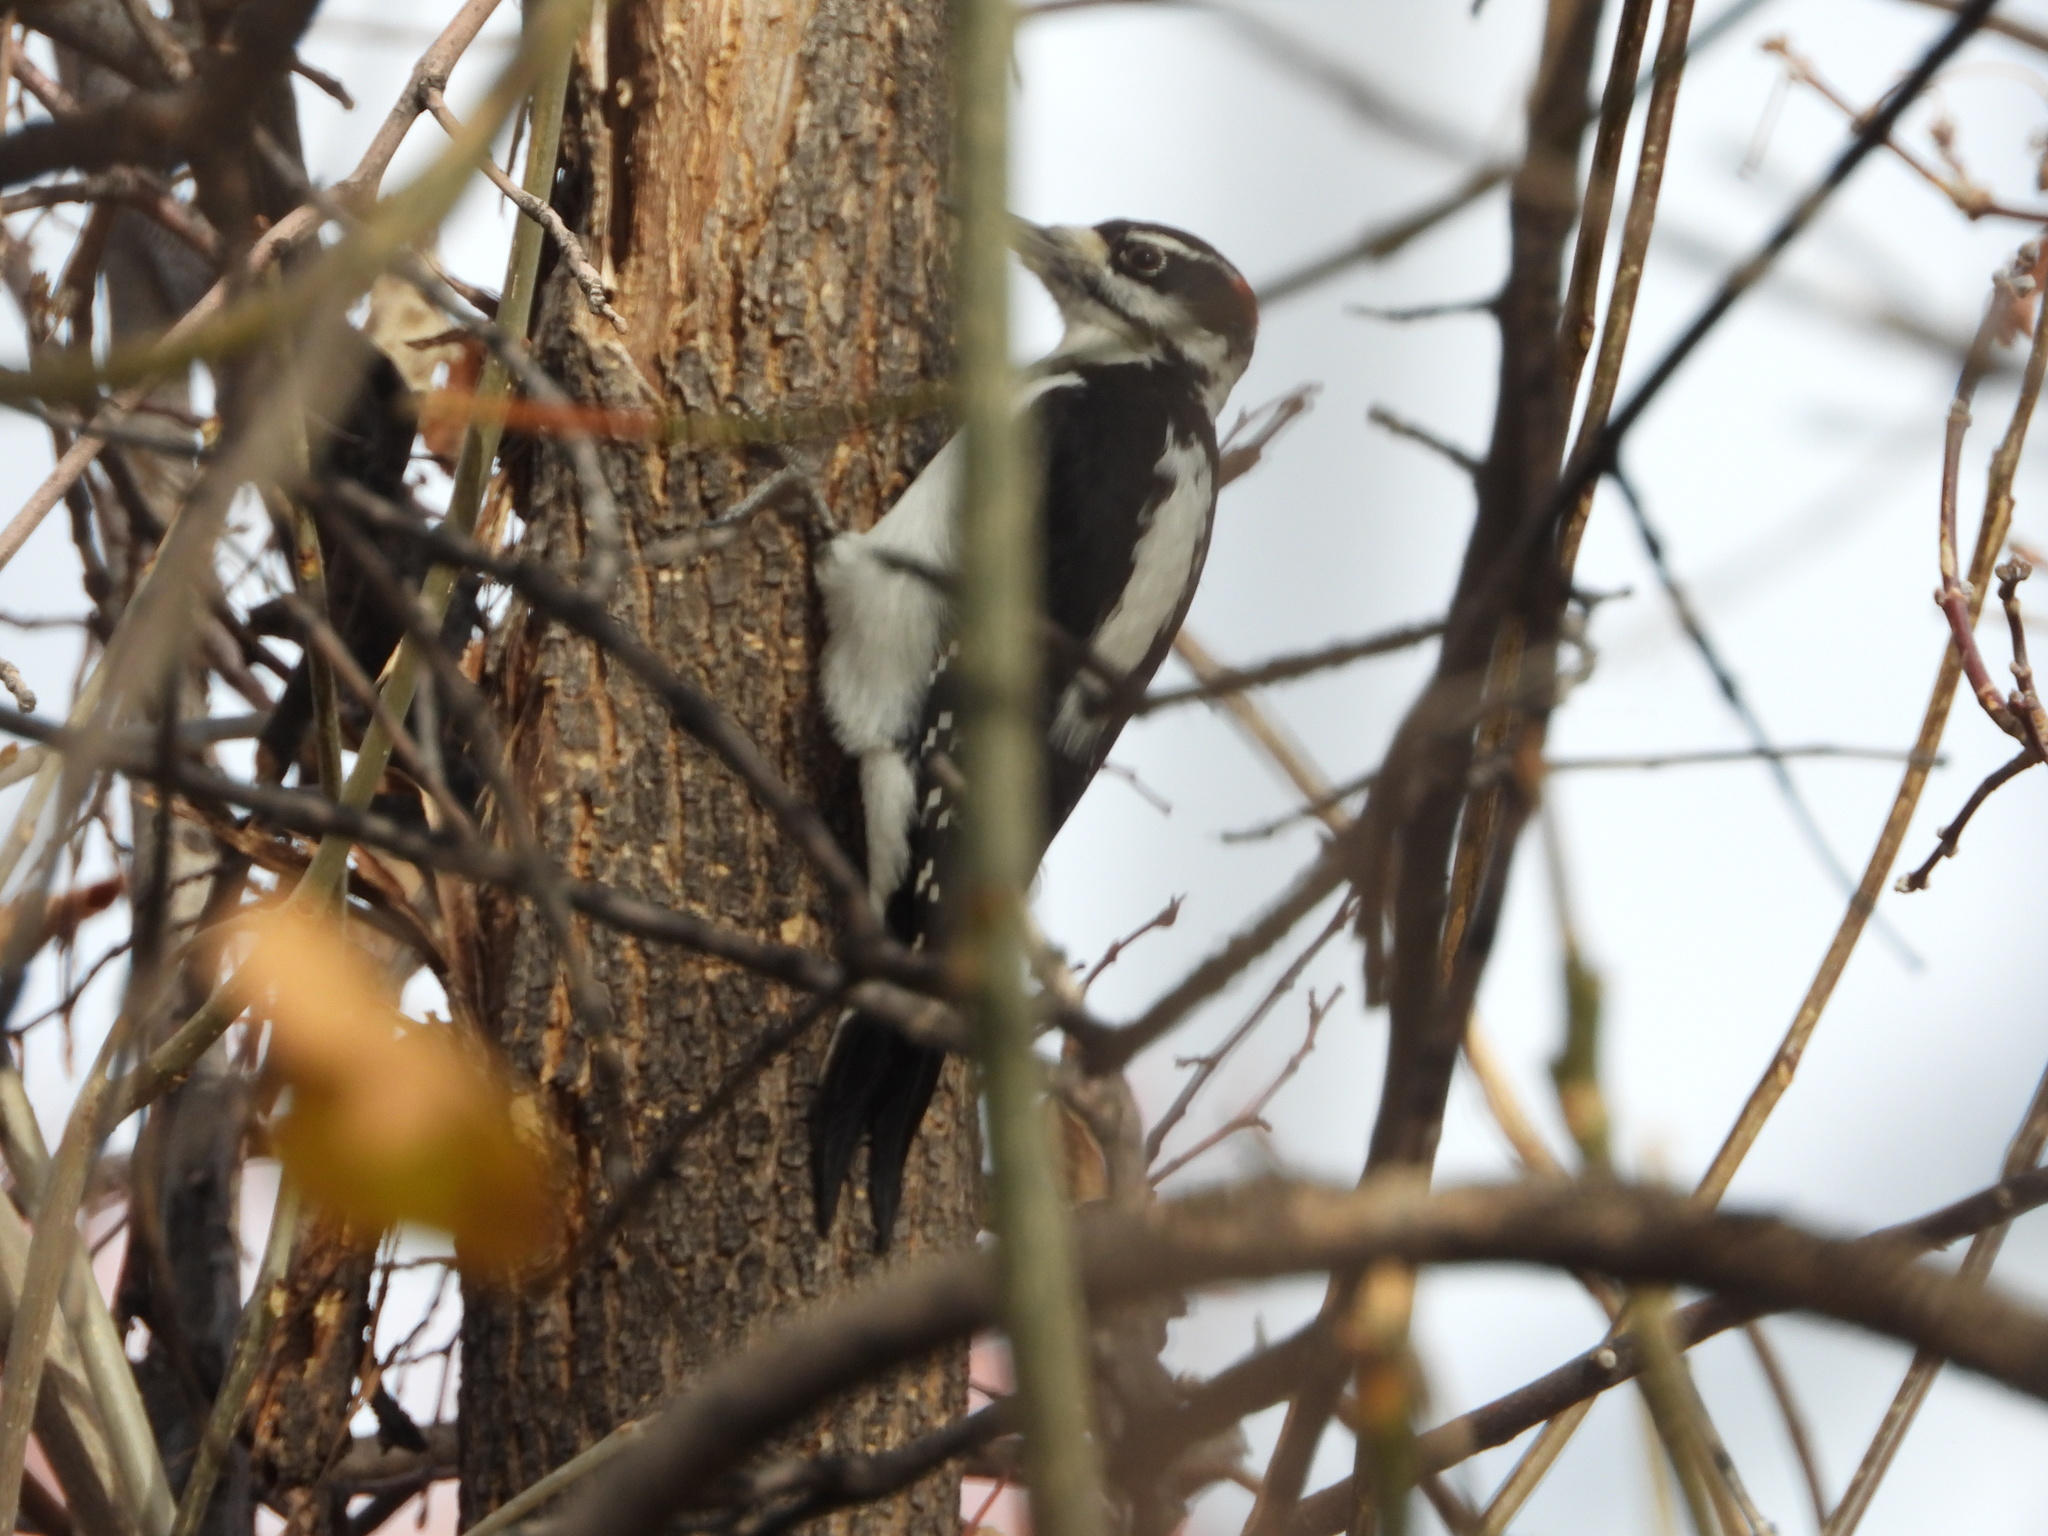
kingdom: Animalia
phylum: Chordata
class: Aves
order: Piciformes
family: Picidae
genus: Leuconotopicus
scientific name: Leuconotopicus villosus
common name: Hairy woodpecker
